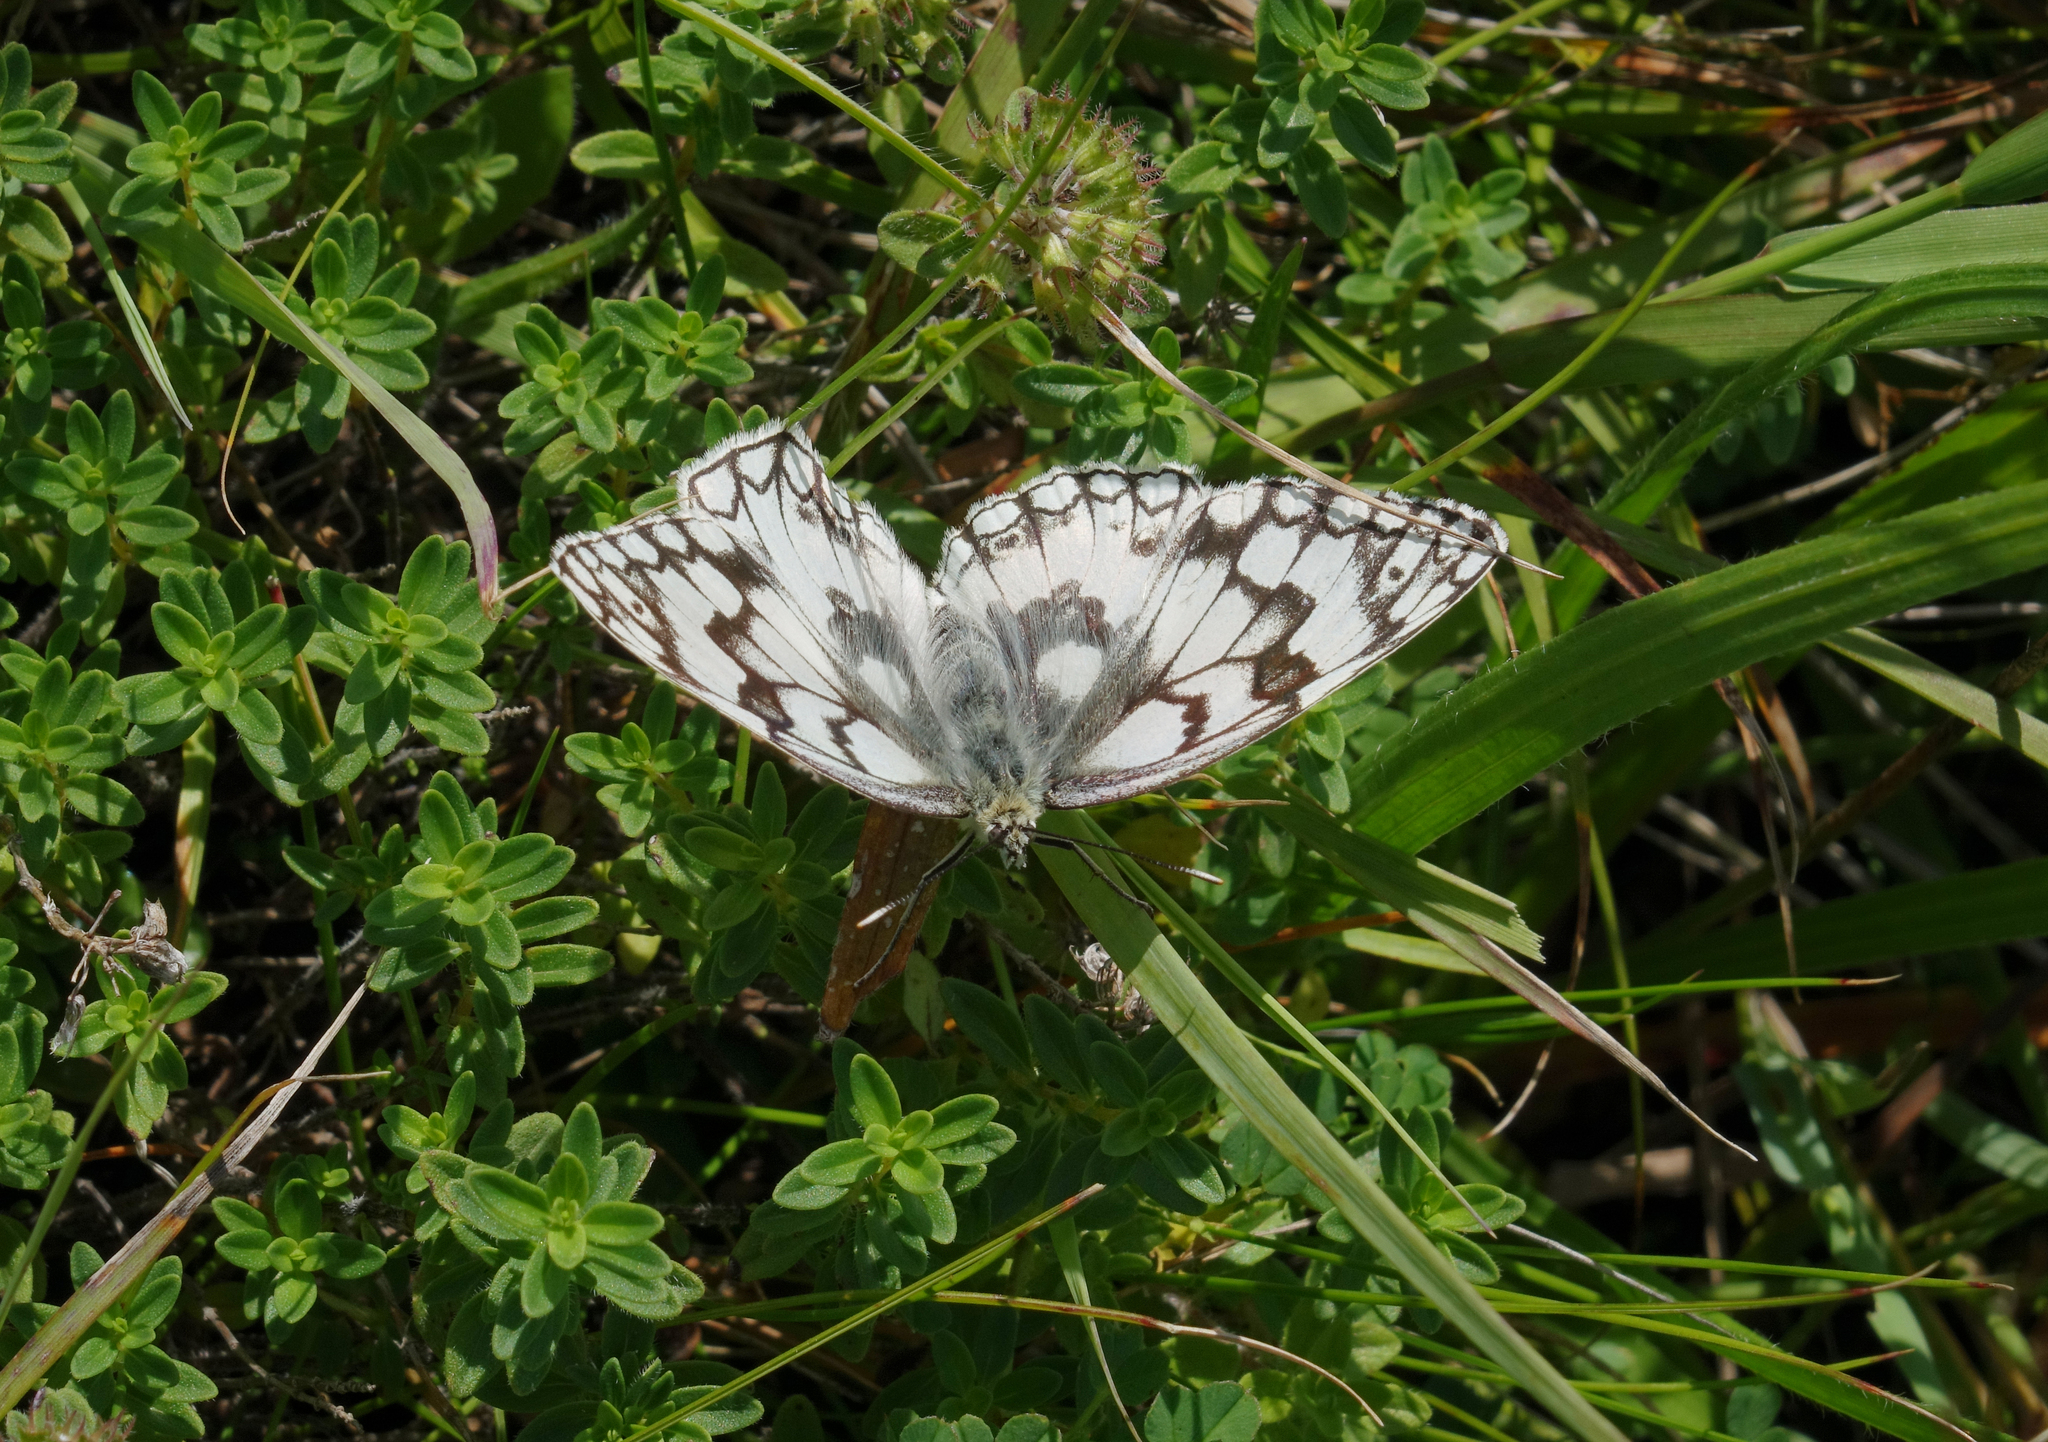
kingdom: Animalia
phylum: Arthropoda
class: Insecta
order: Lepidoptera
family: Nymphalidae
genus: Melanargia
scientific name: Melanargia japygia
